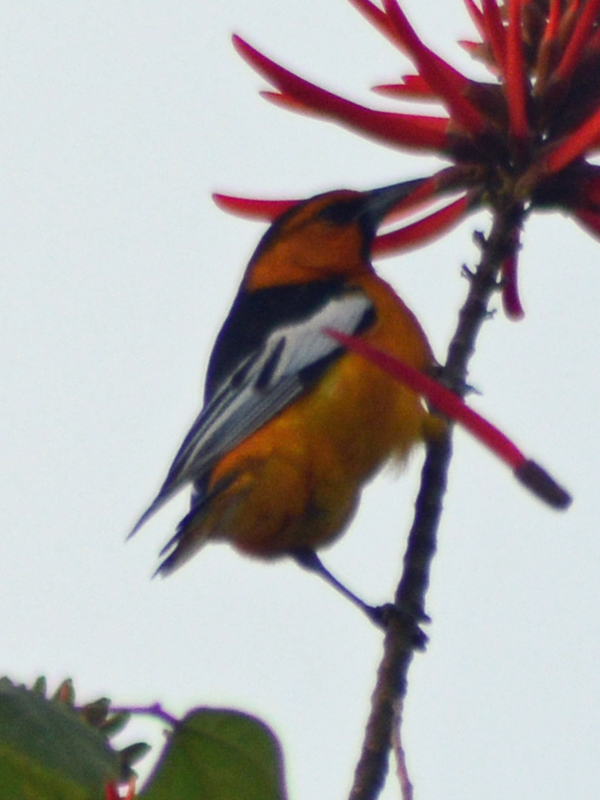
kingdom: Animalia
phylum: Chordata
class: Aves
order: Passeriformes
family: Icteridae
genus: Icterus
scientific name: Icterus bullockii
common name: Bullock's oriole
